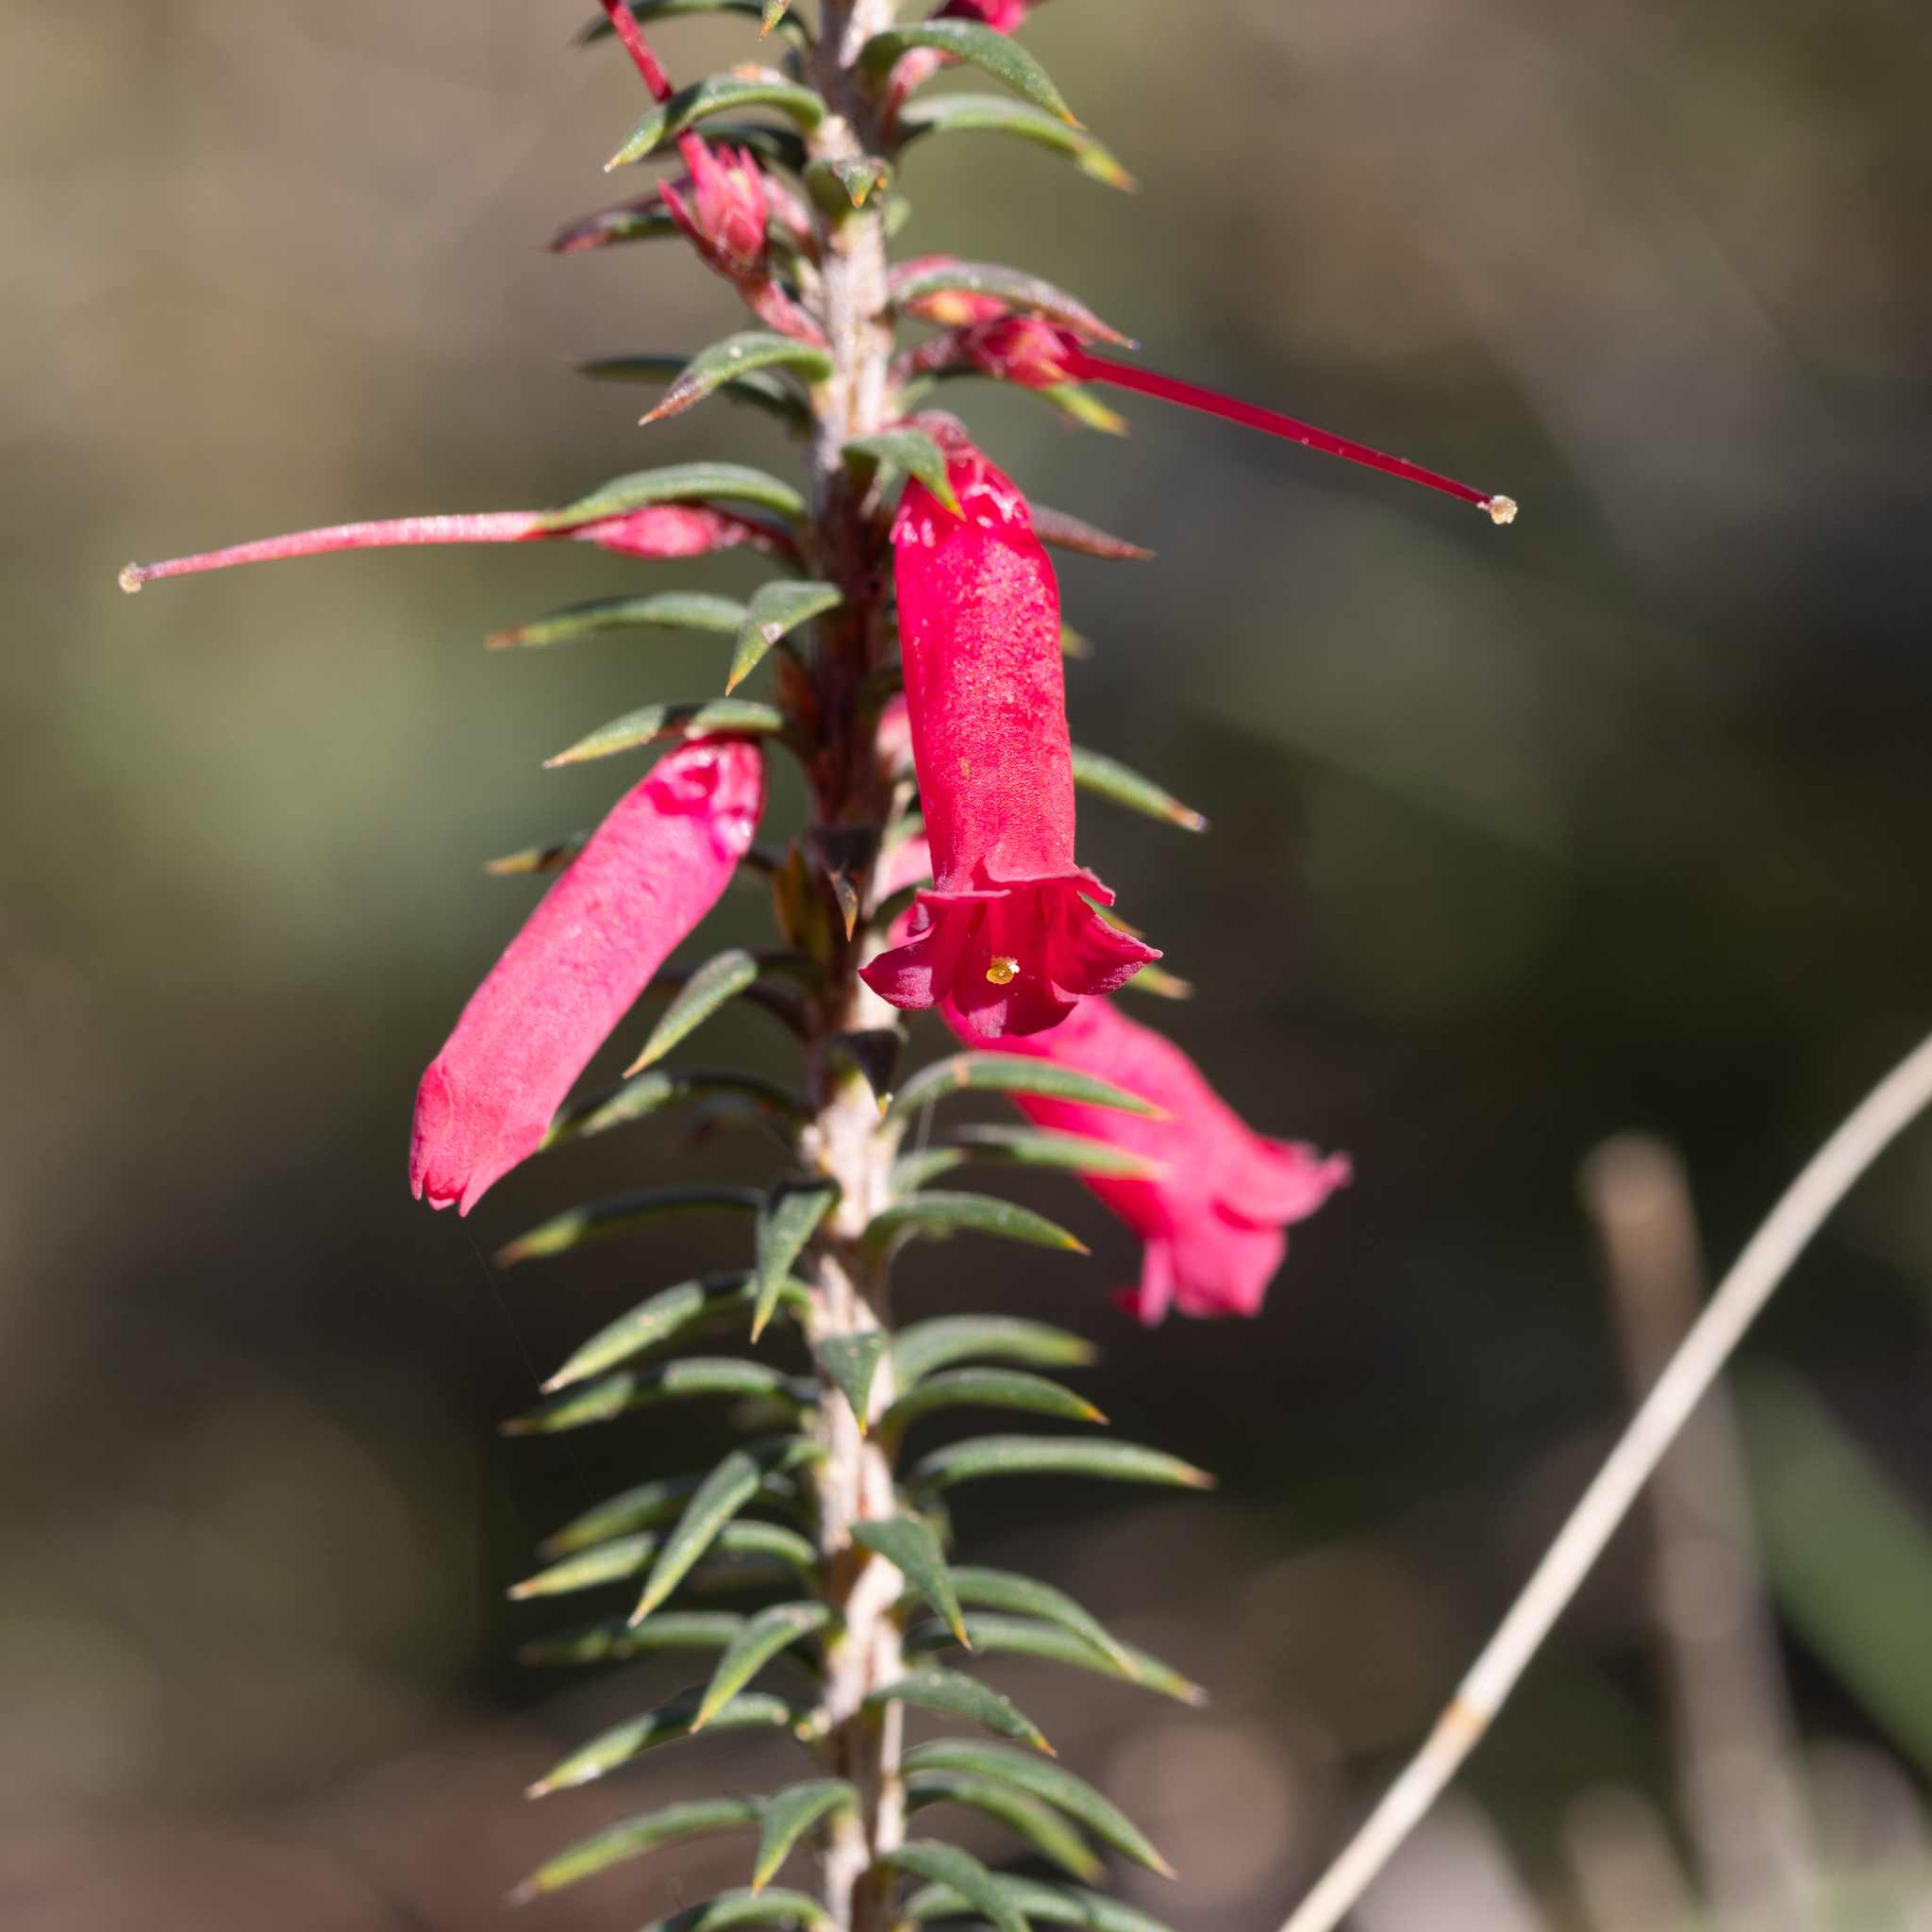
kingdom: Plantae
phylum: Tracheophyta
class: Magnoliopsida
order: Ericales
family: Ericaceae
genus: Epacris
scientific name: Epacris impressa
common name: Common-heath
